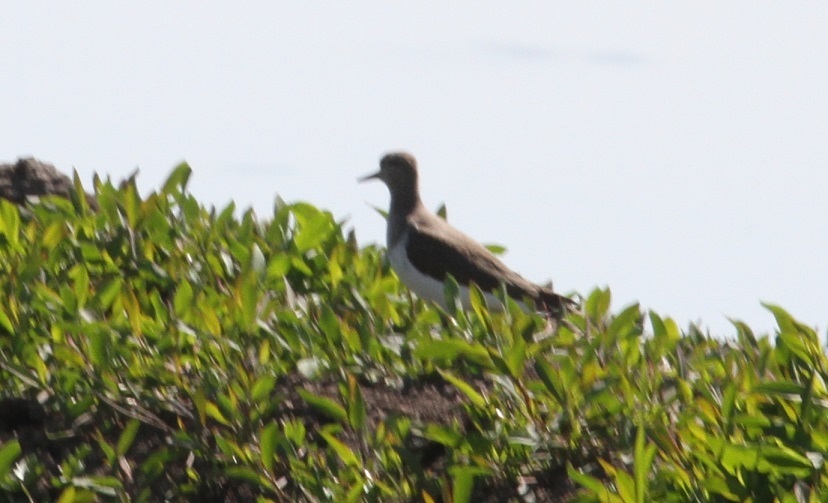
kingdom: Animalia
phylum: Chordata
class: Aves
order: Charadriiformes
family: Scolopacidae
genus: Actitis
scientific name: Actitis hypoleucos
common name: Common sandpiper
